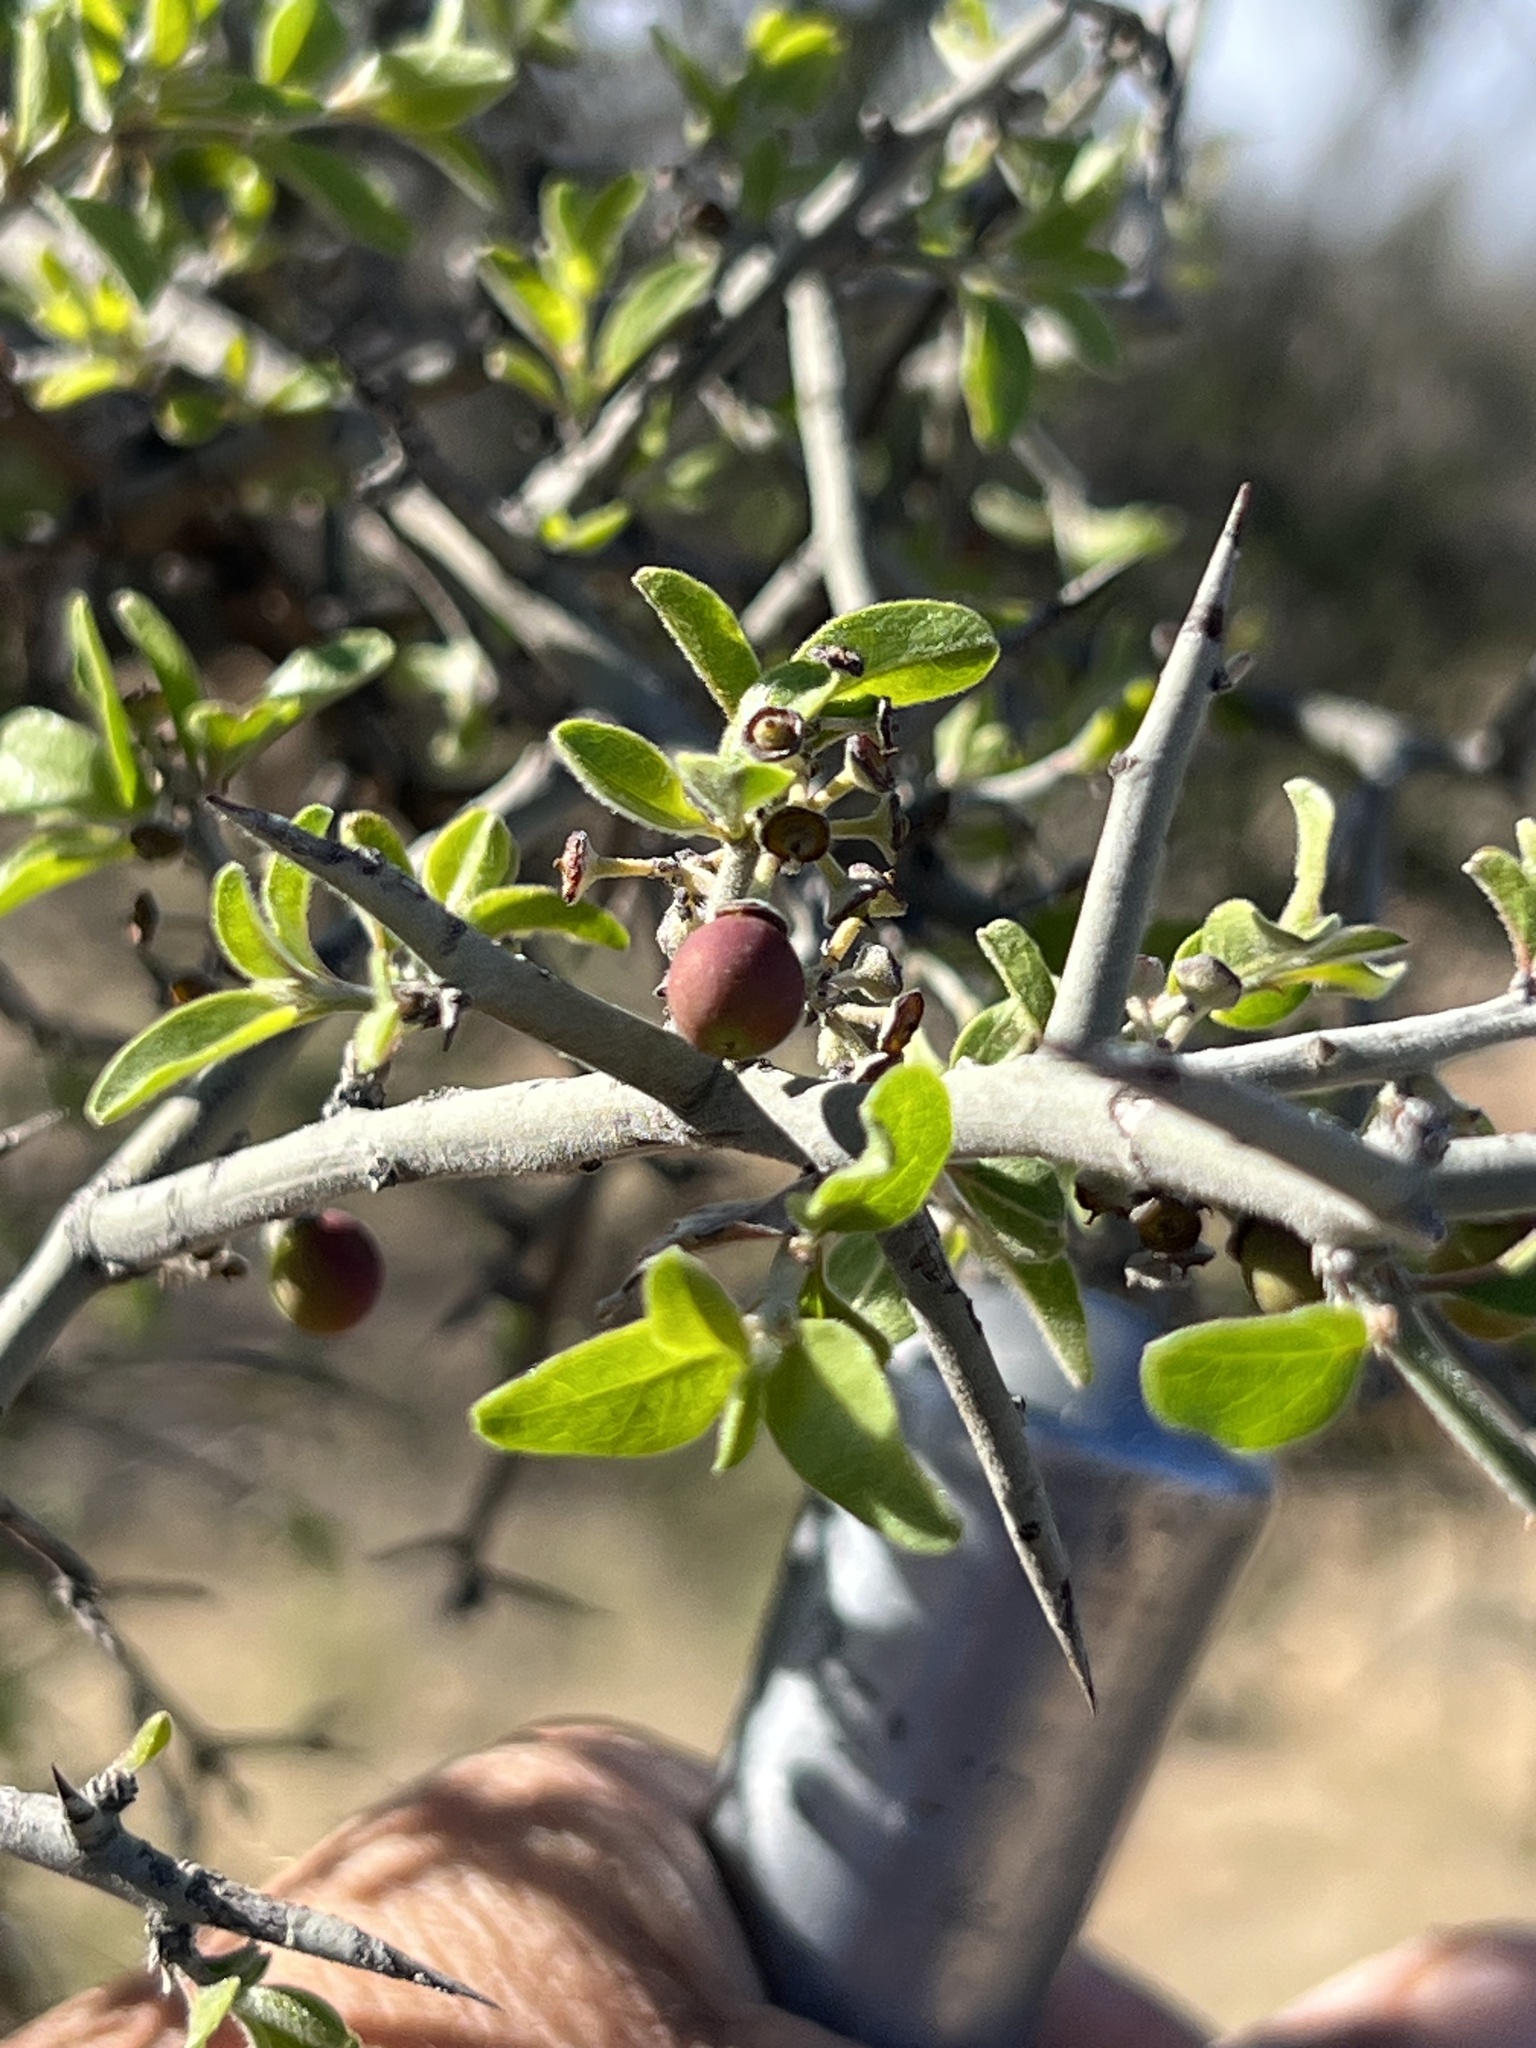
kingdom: Plantae
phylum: Tracheophyta
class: Magnoliopsida
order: Rosales
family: Rhamnaceae
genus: Sarcomphalus
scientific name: Sarcomphalus obtusifolius
